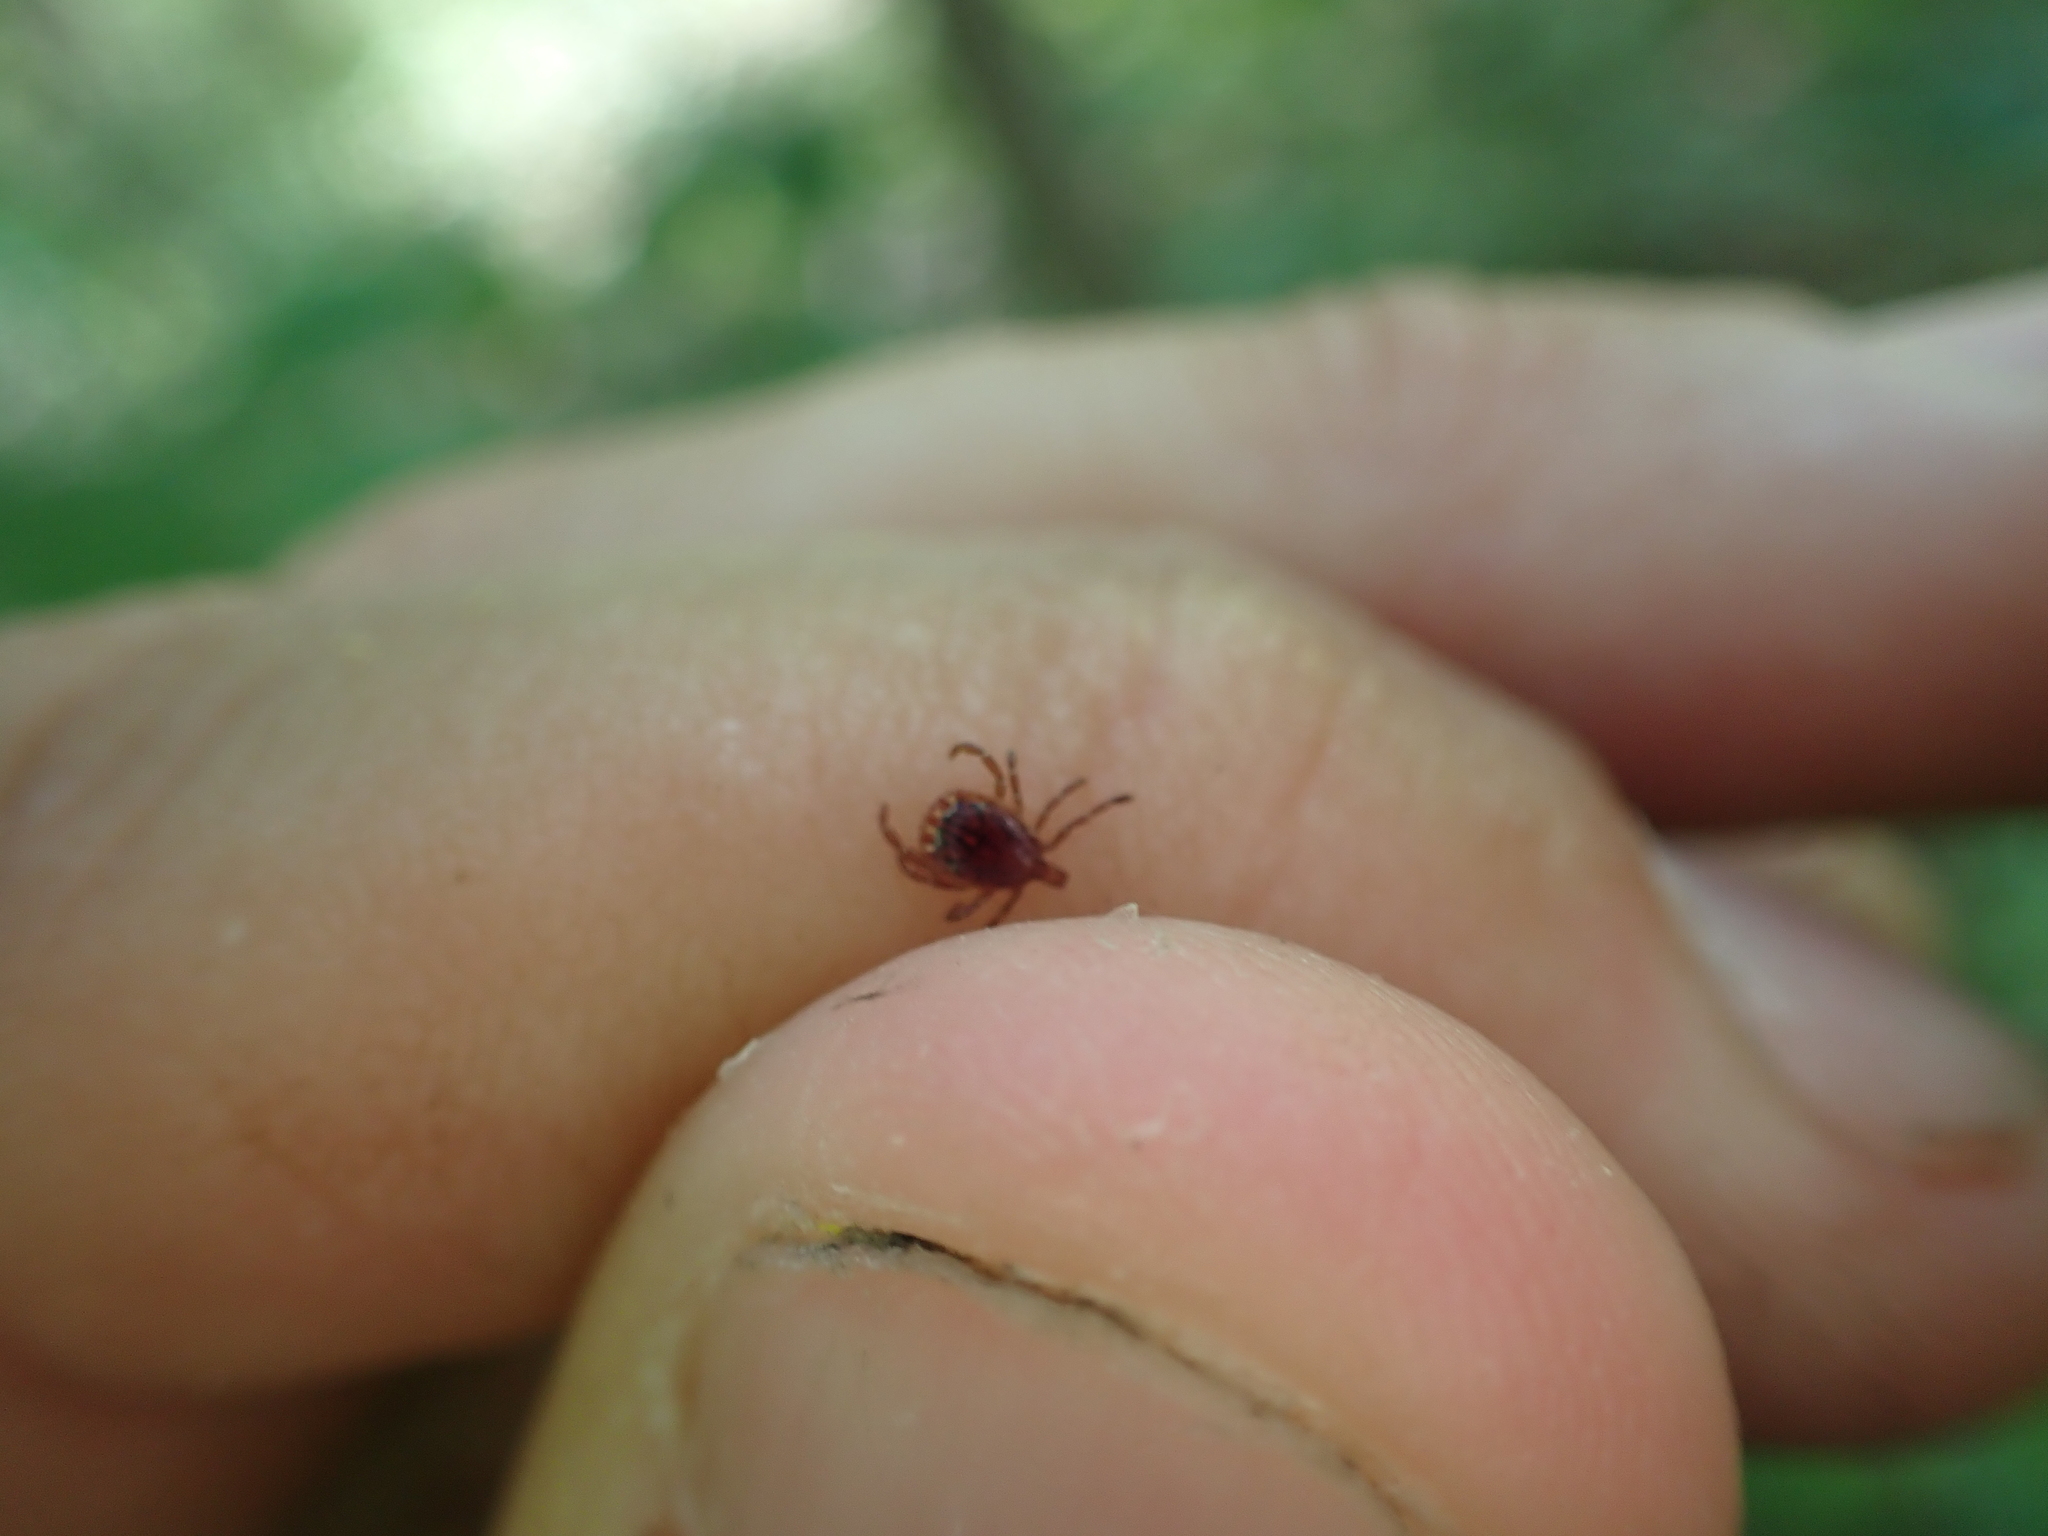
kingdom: Animalia
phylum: Arthropoda
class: Arachnida
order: Ixodida
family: Ixodidae
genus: Amblyomma
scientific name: Amblyomma americanum
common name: Lone star tick
